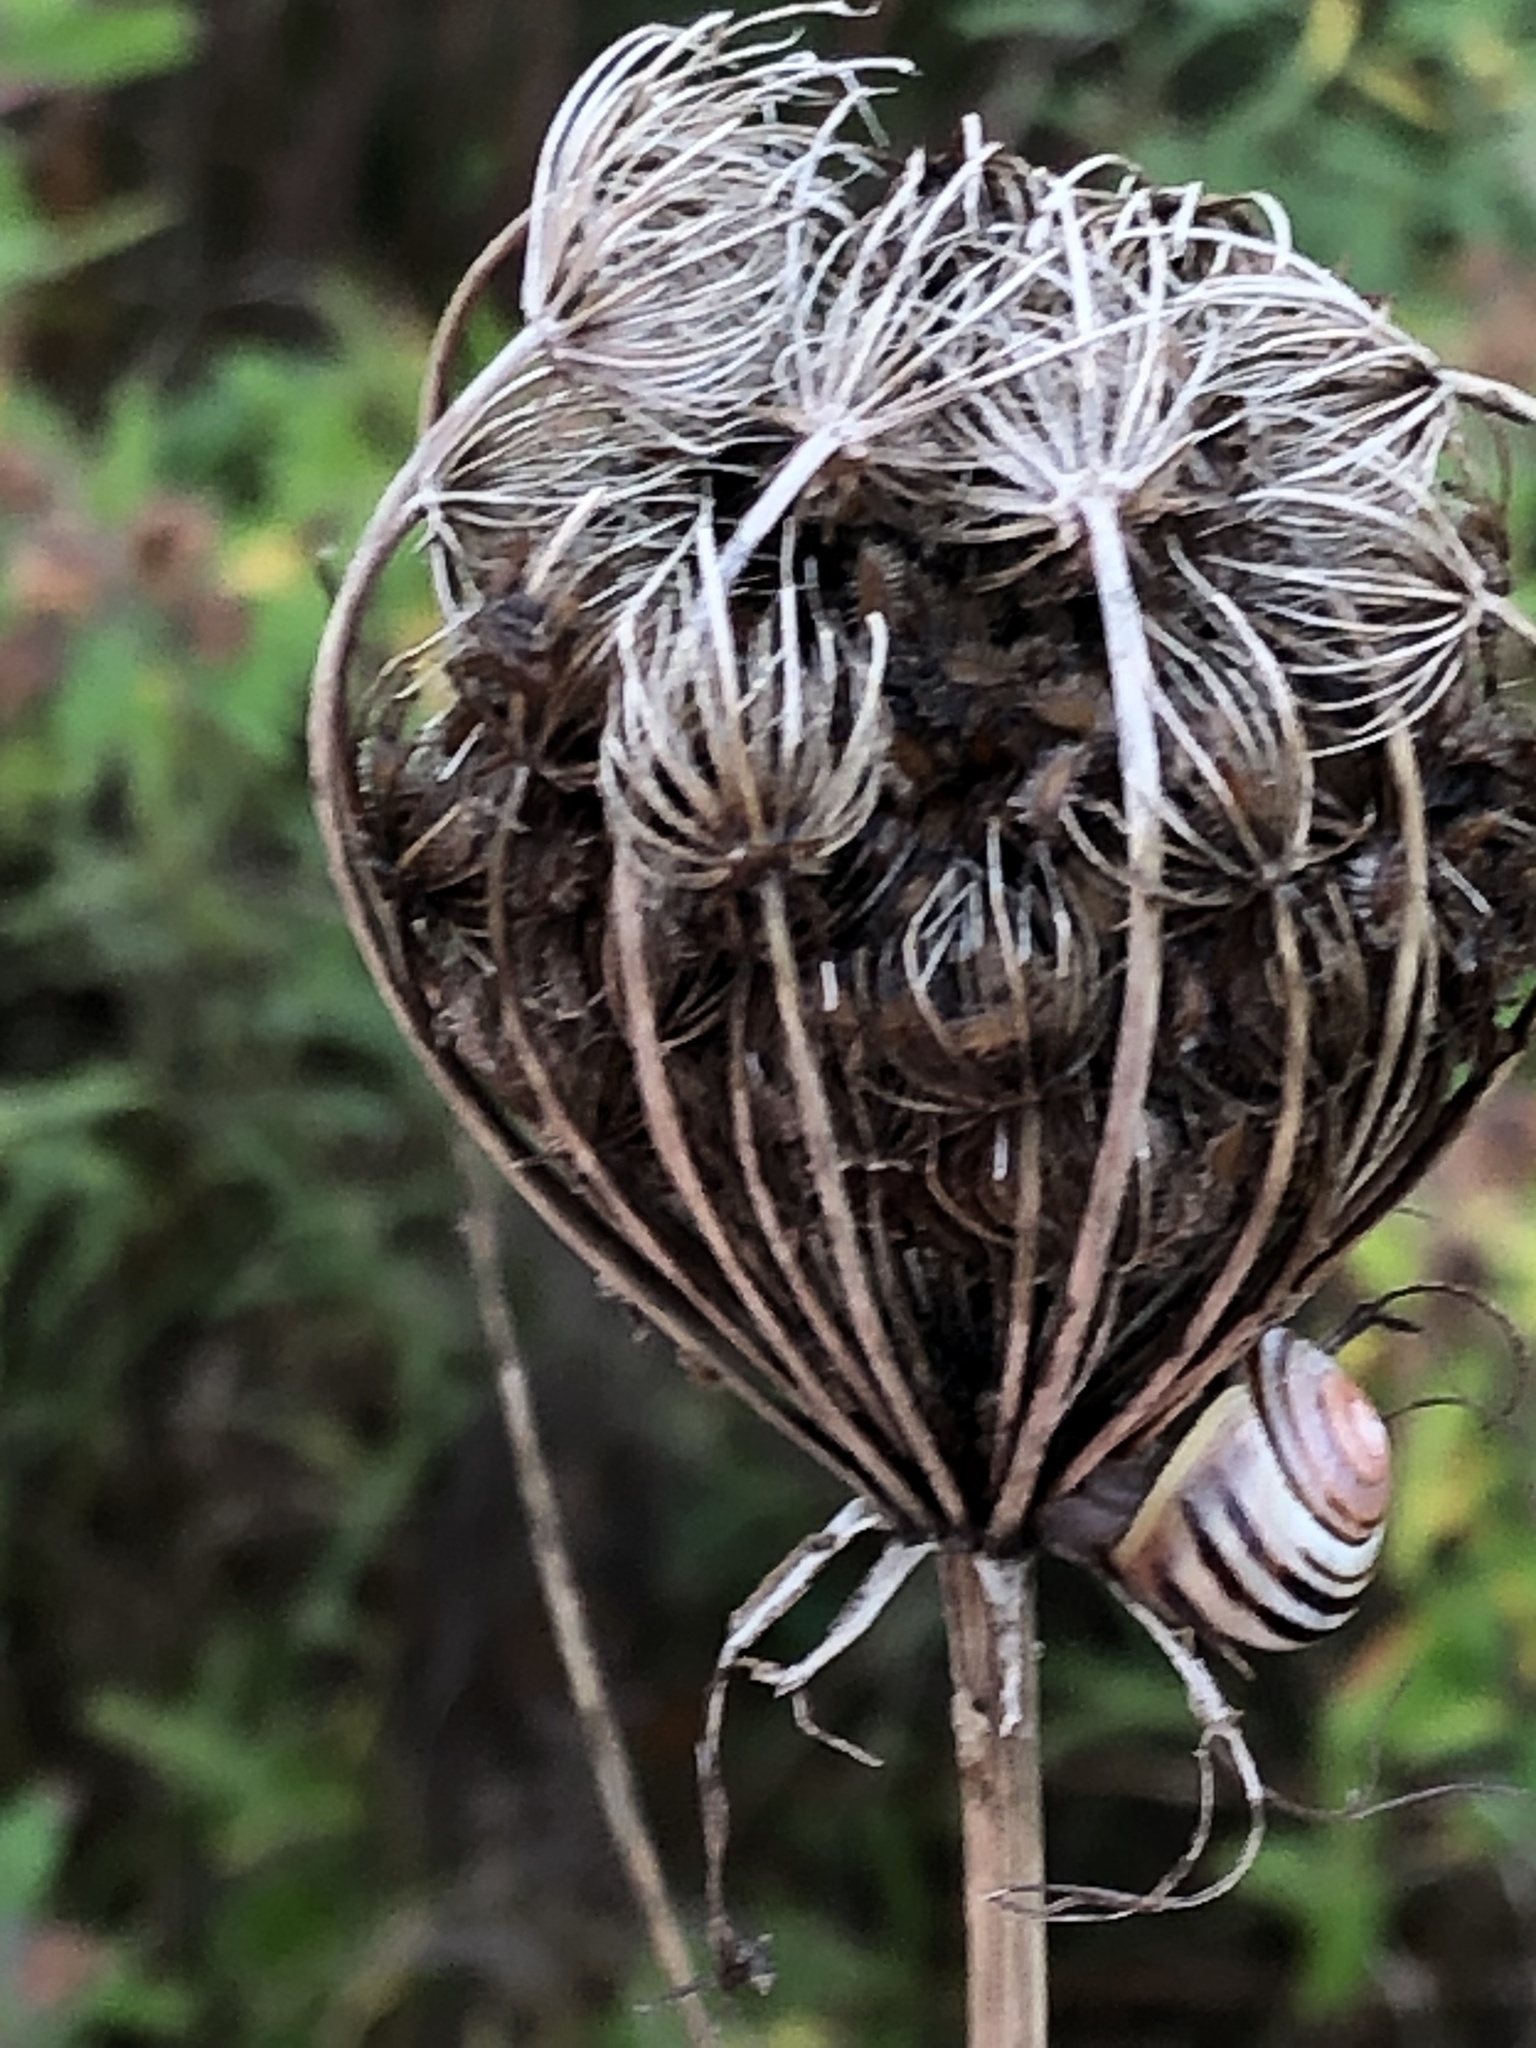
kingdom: Plantae
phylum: Tracheophyta
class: Magnoliopsida
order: Apiales
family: Apiaceae
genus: Daucus
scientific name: Daucus carota
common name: Wild carrot
